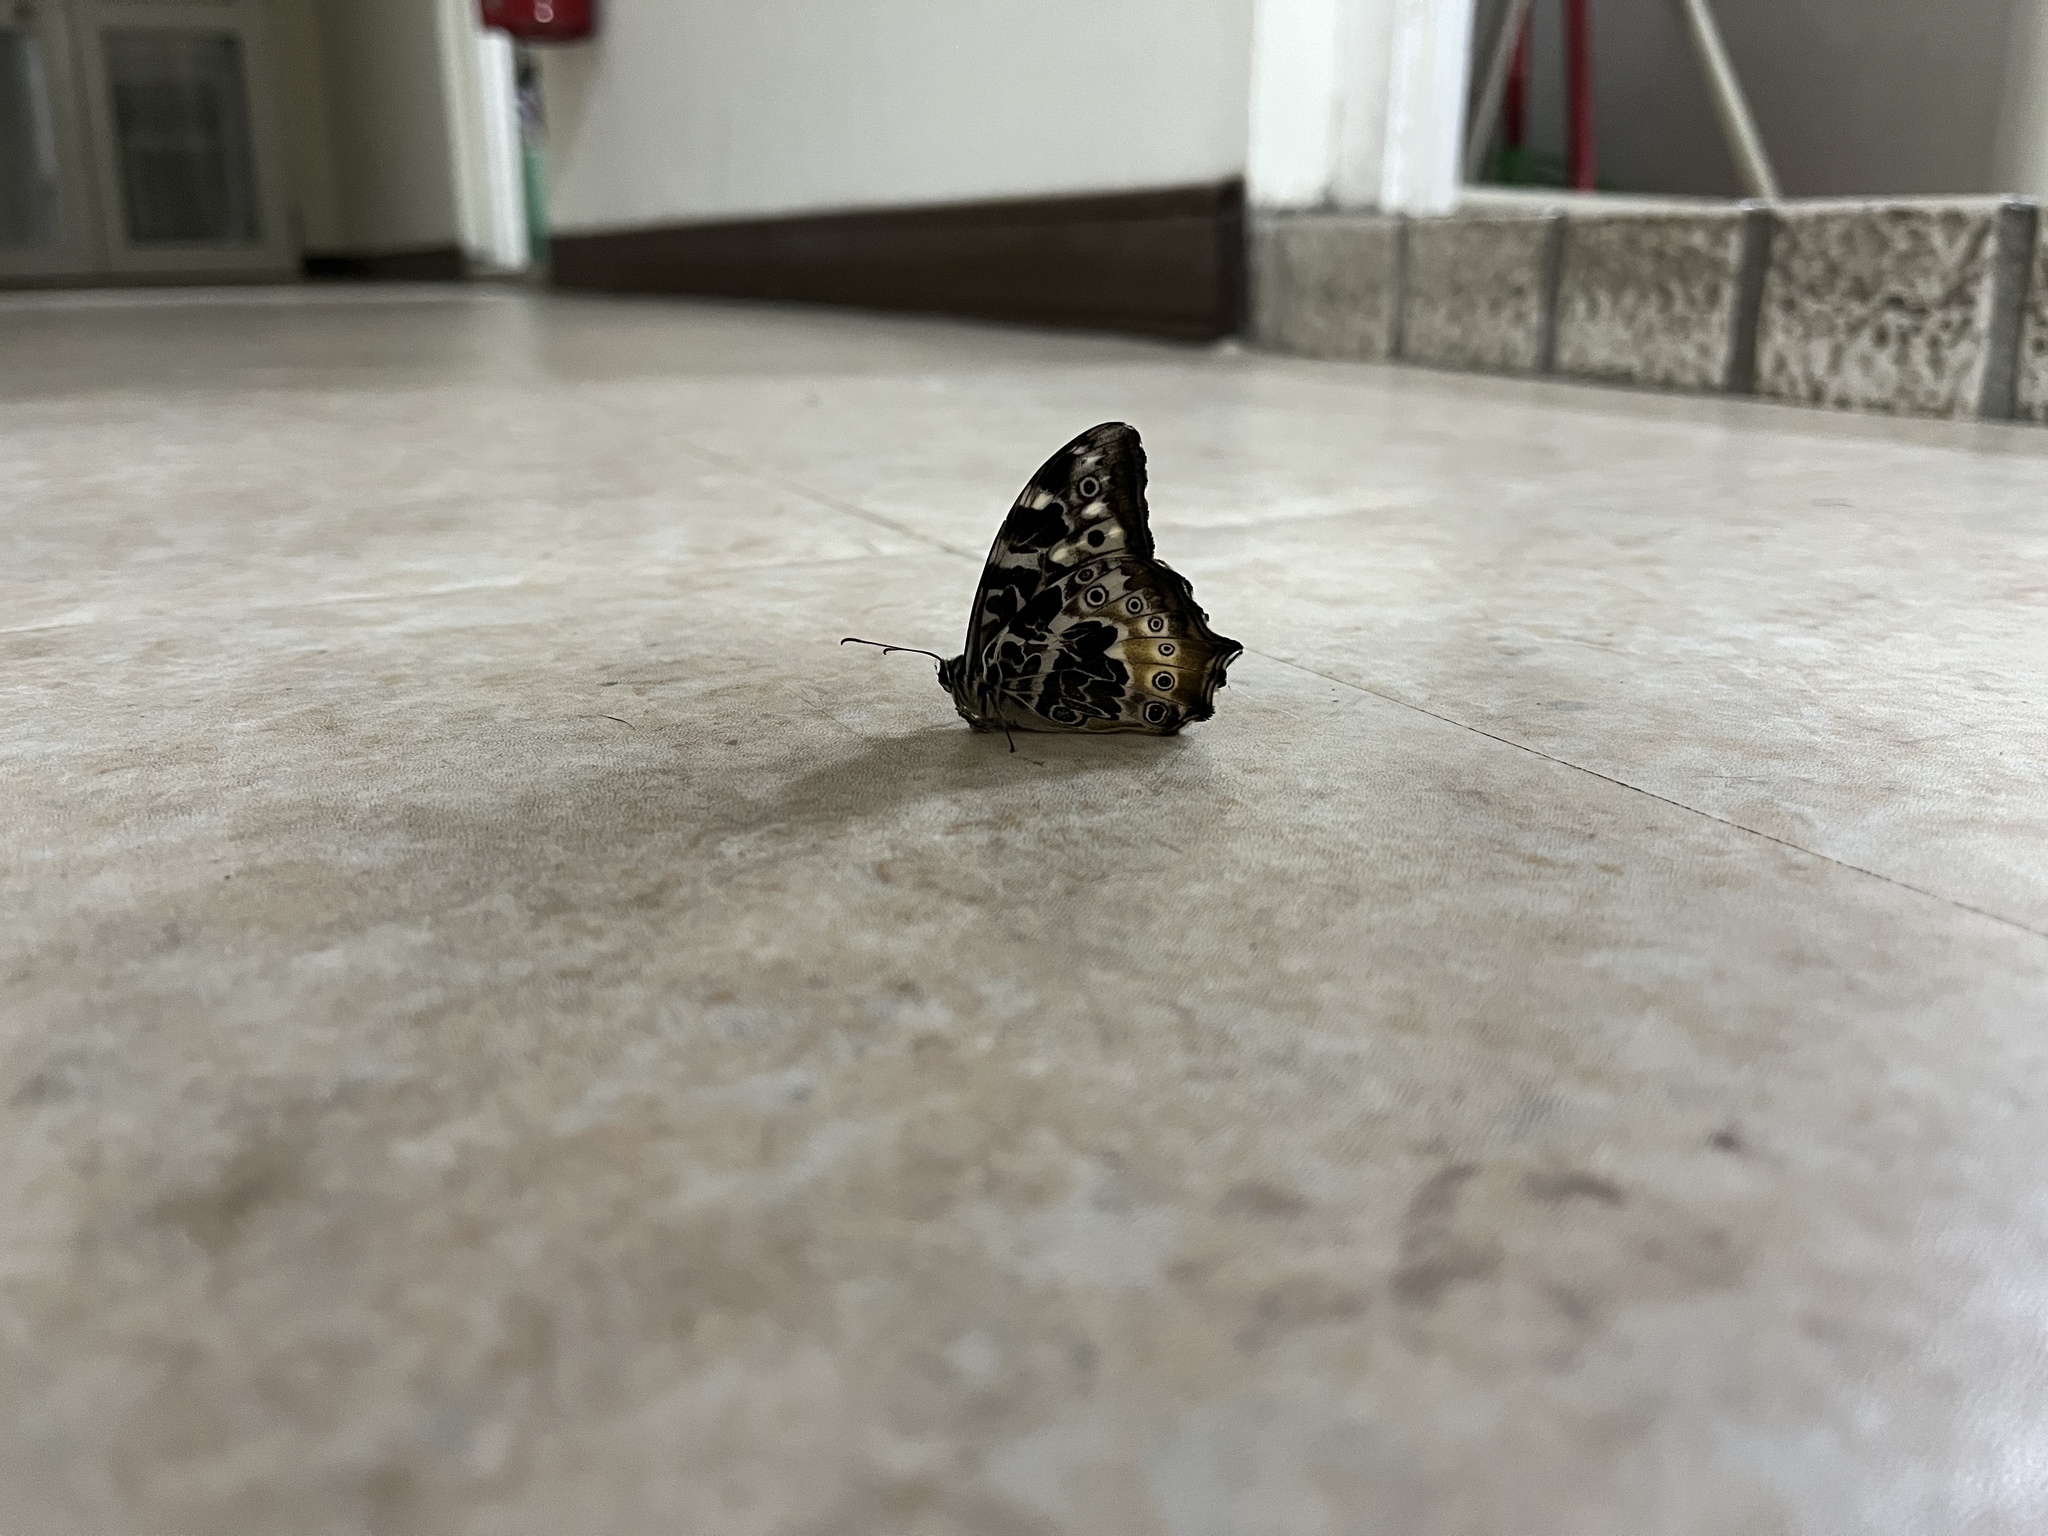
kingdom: Animalia
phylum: Arthropoda
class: Insecta
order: Lepidoptera
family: Nymphalidae
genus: Neope
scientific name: Neope armandii
